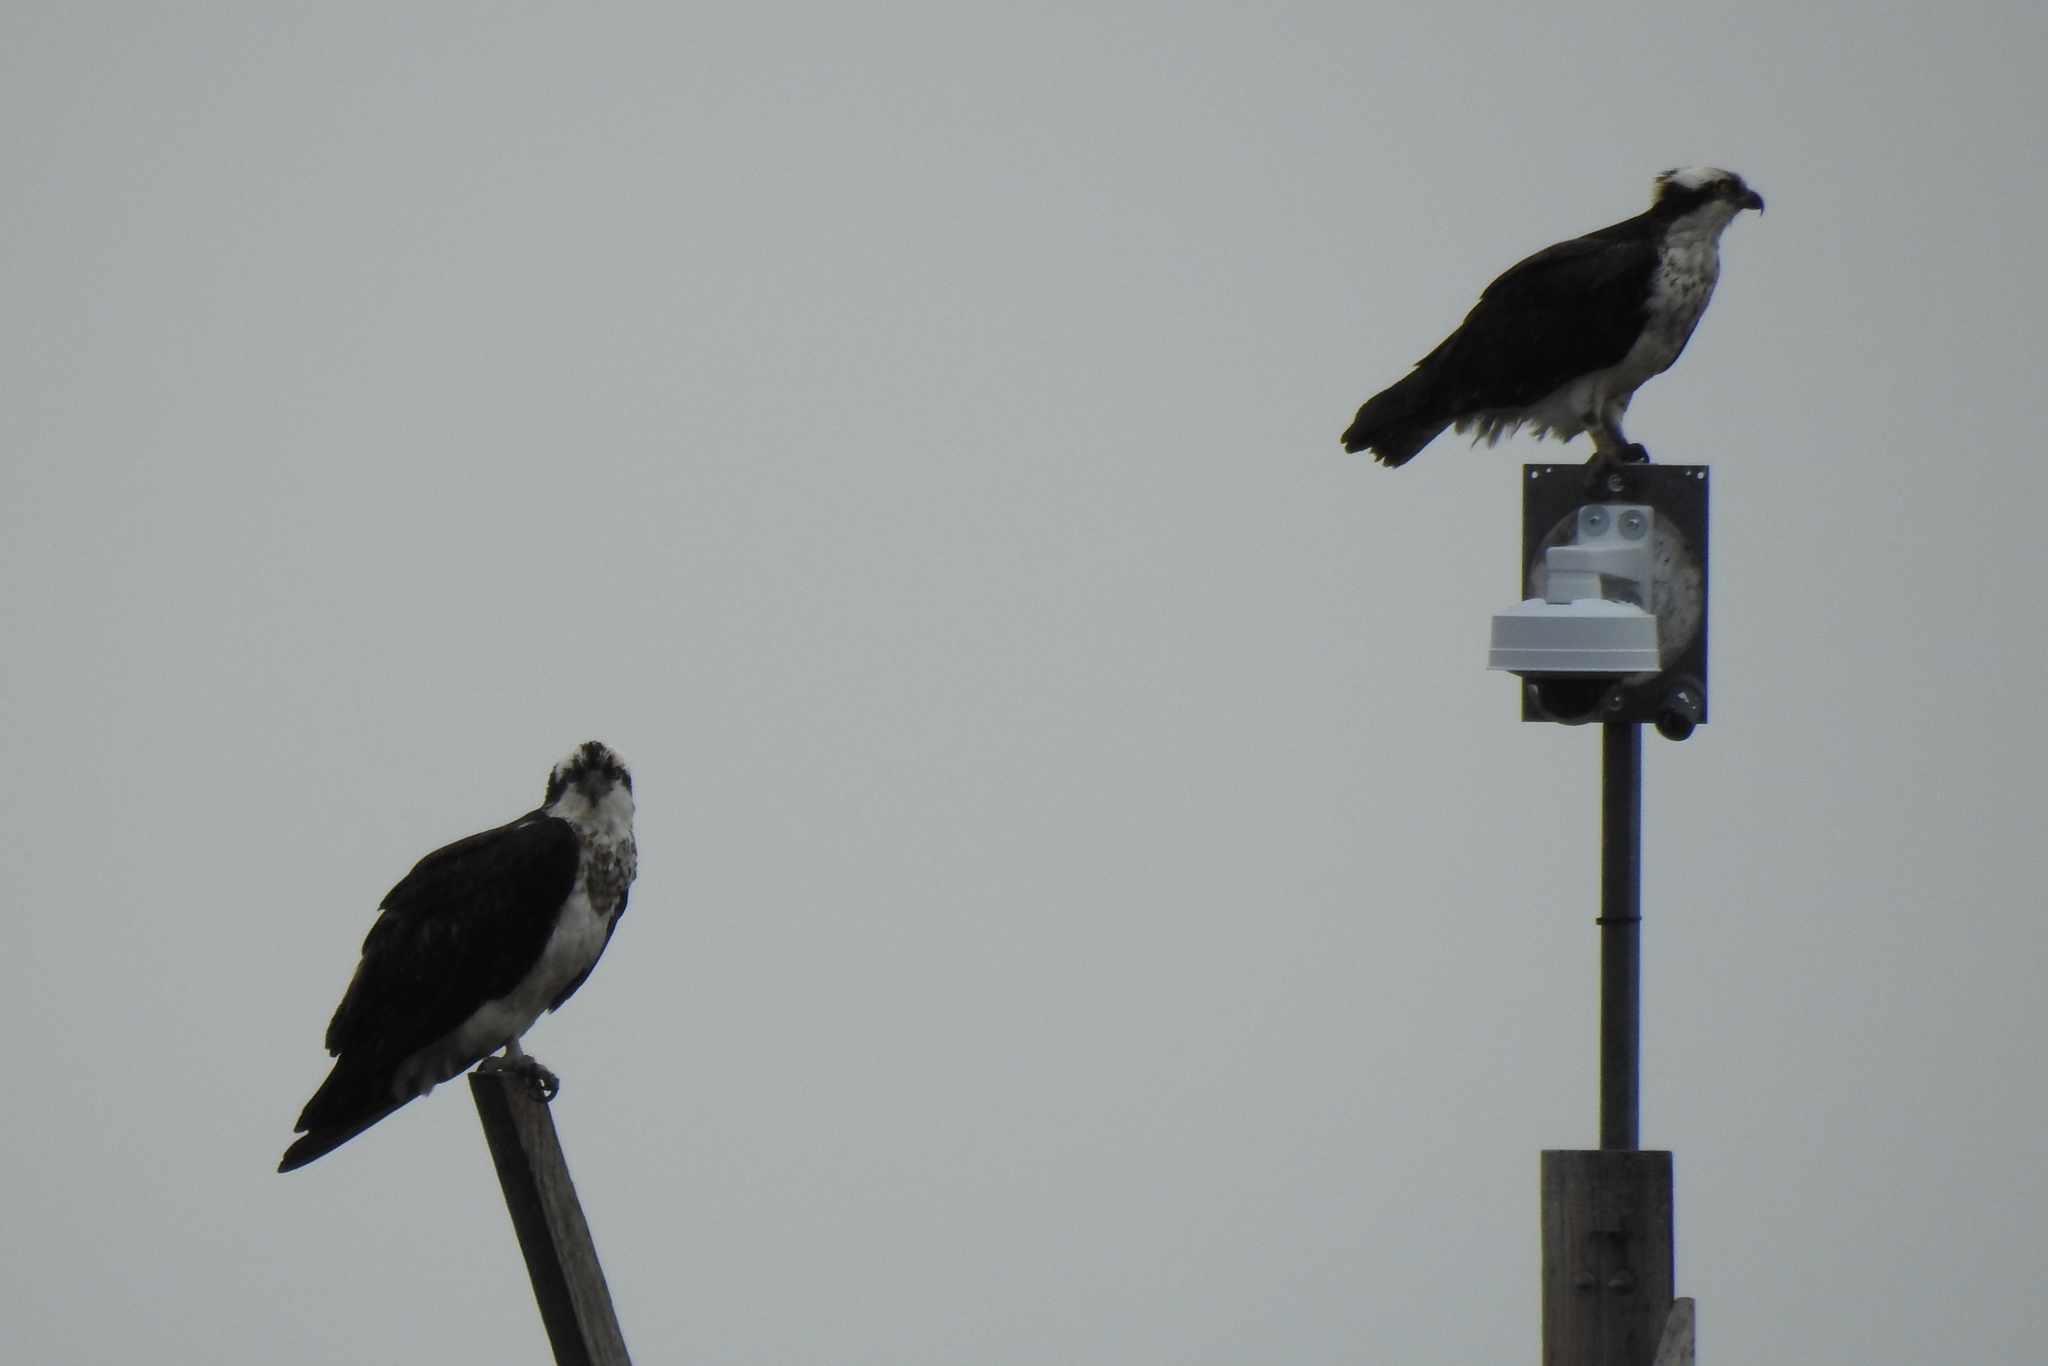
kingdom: Animalia
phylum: Chordata
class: Aves
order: Accipitriformes
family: Pandionidae
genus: Pandion
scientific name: Pandion haliaetus
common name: Osprey
